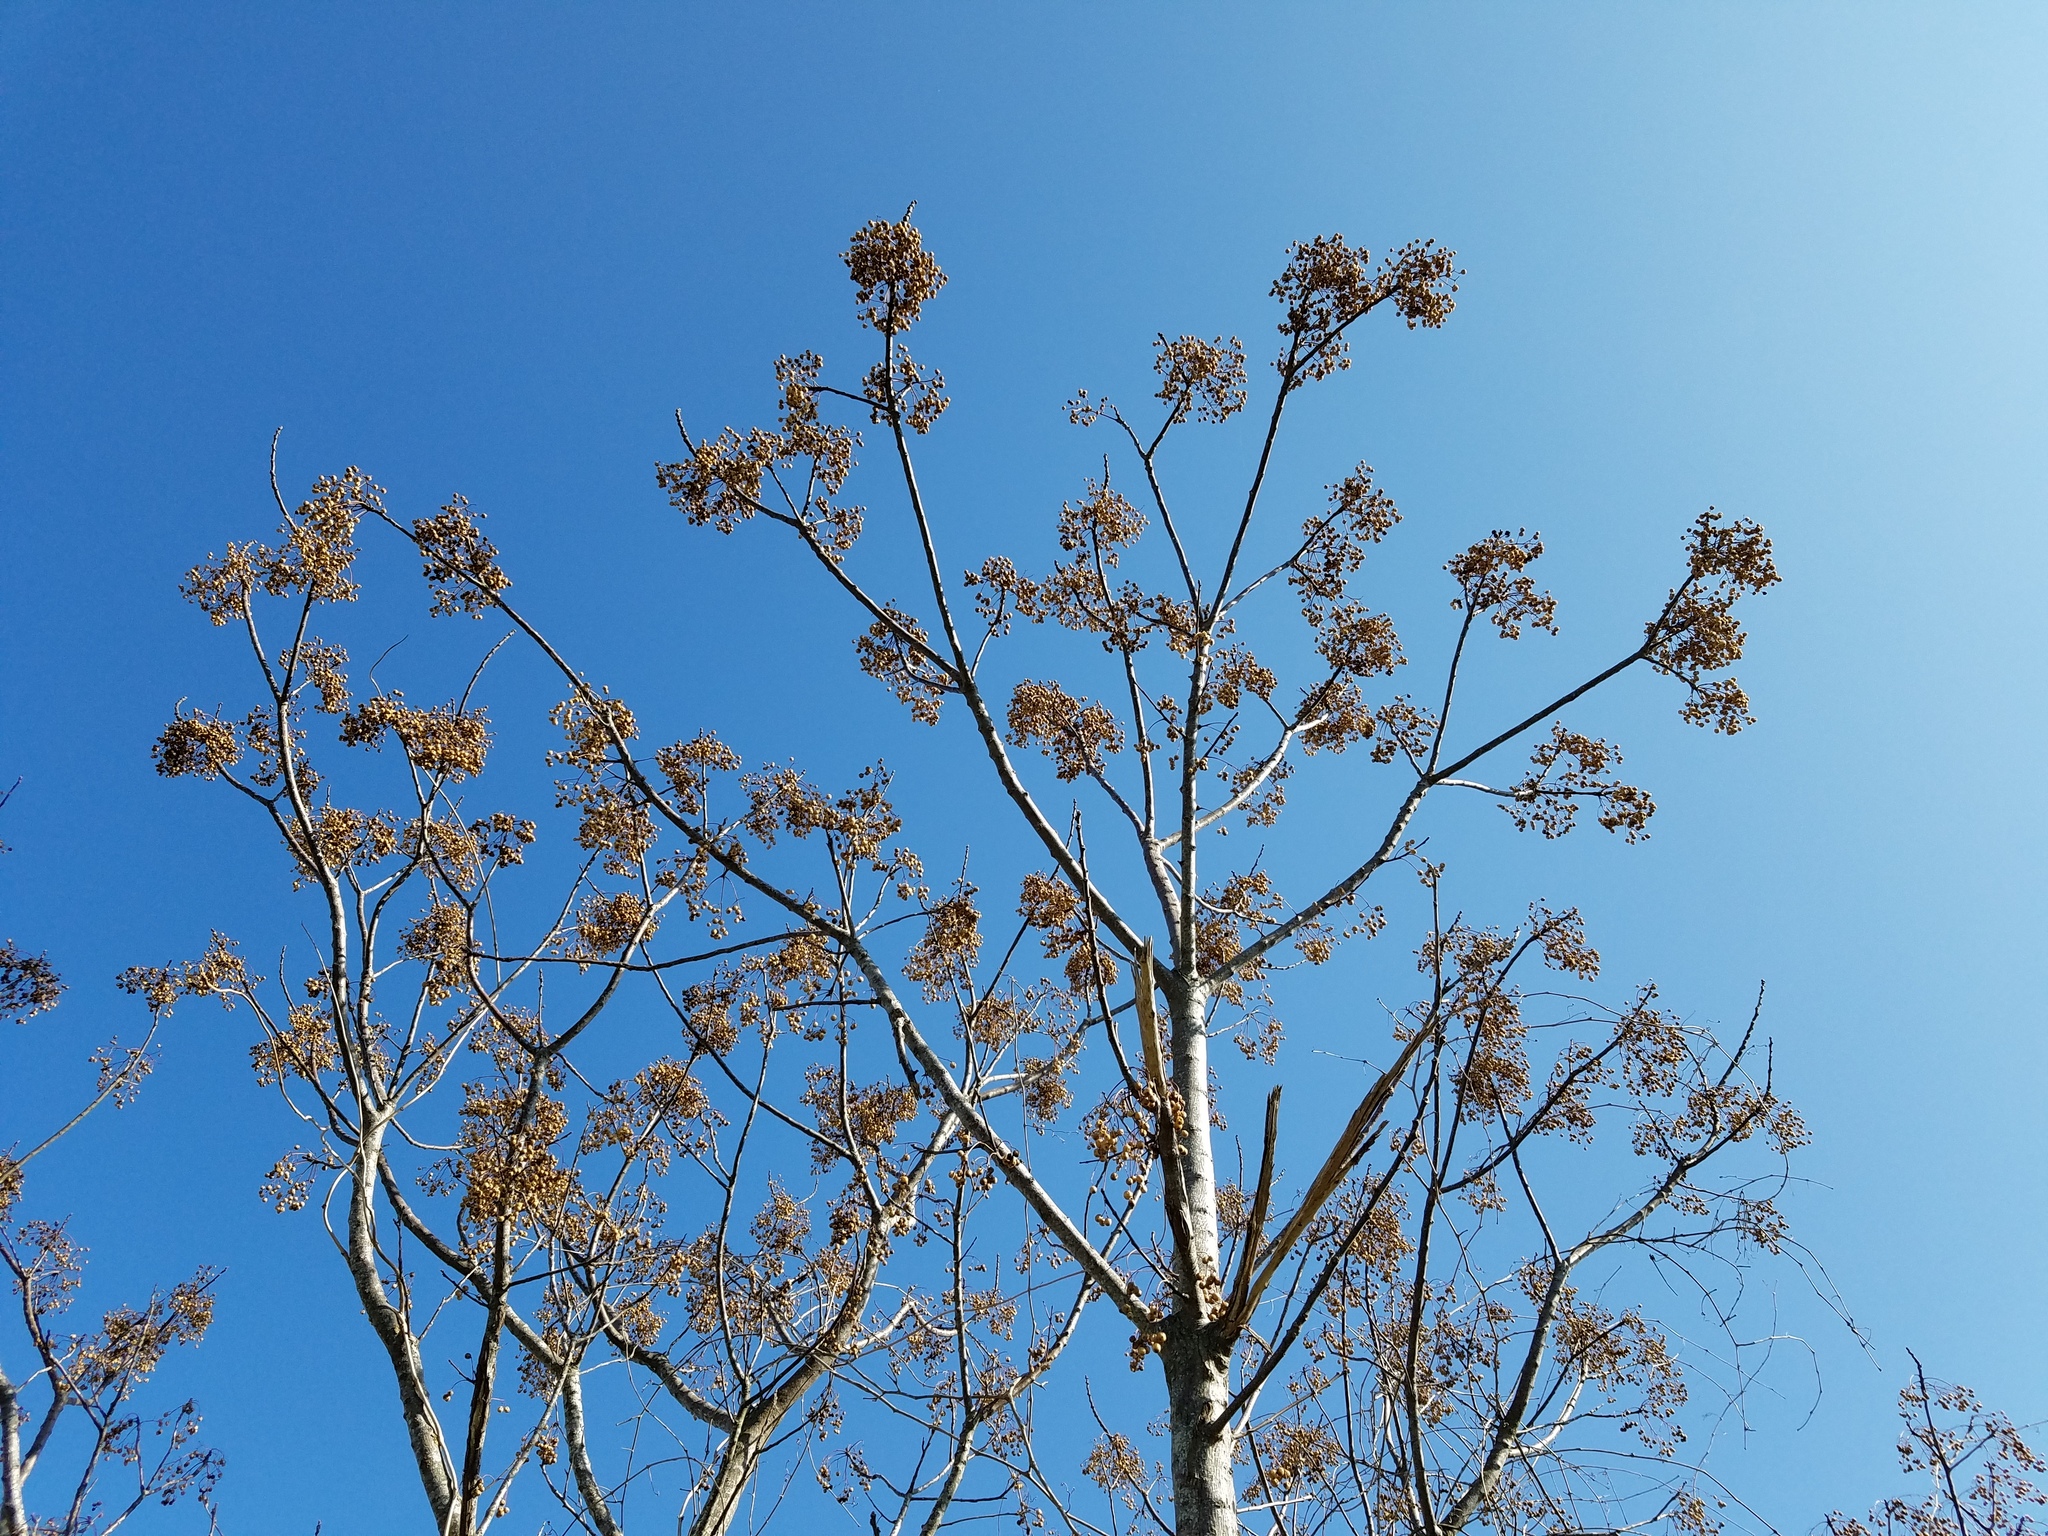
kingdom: Plantae
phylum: Tracheophyta
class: Magnoliopsida
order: Sapindales
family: Meliaceae
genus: Melia
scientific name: Melia azedarach
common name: Chinaberrytree
